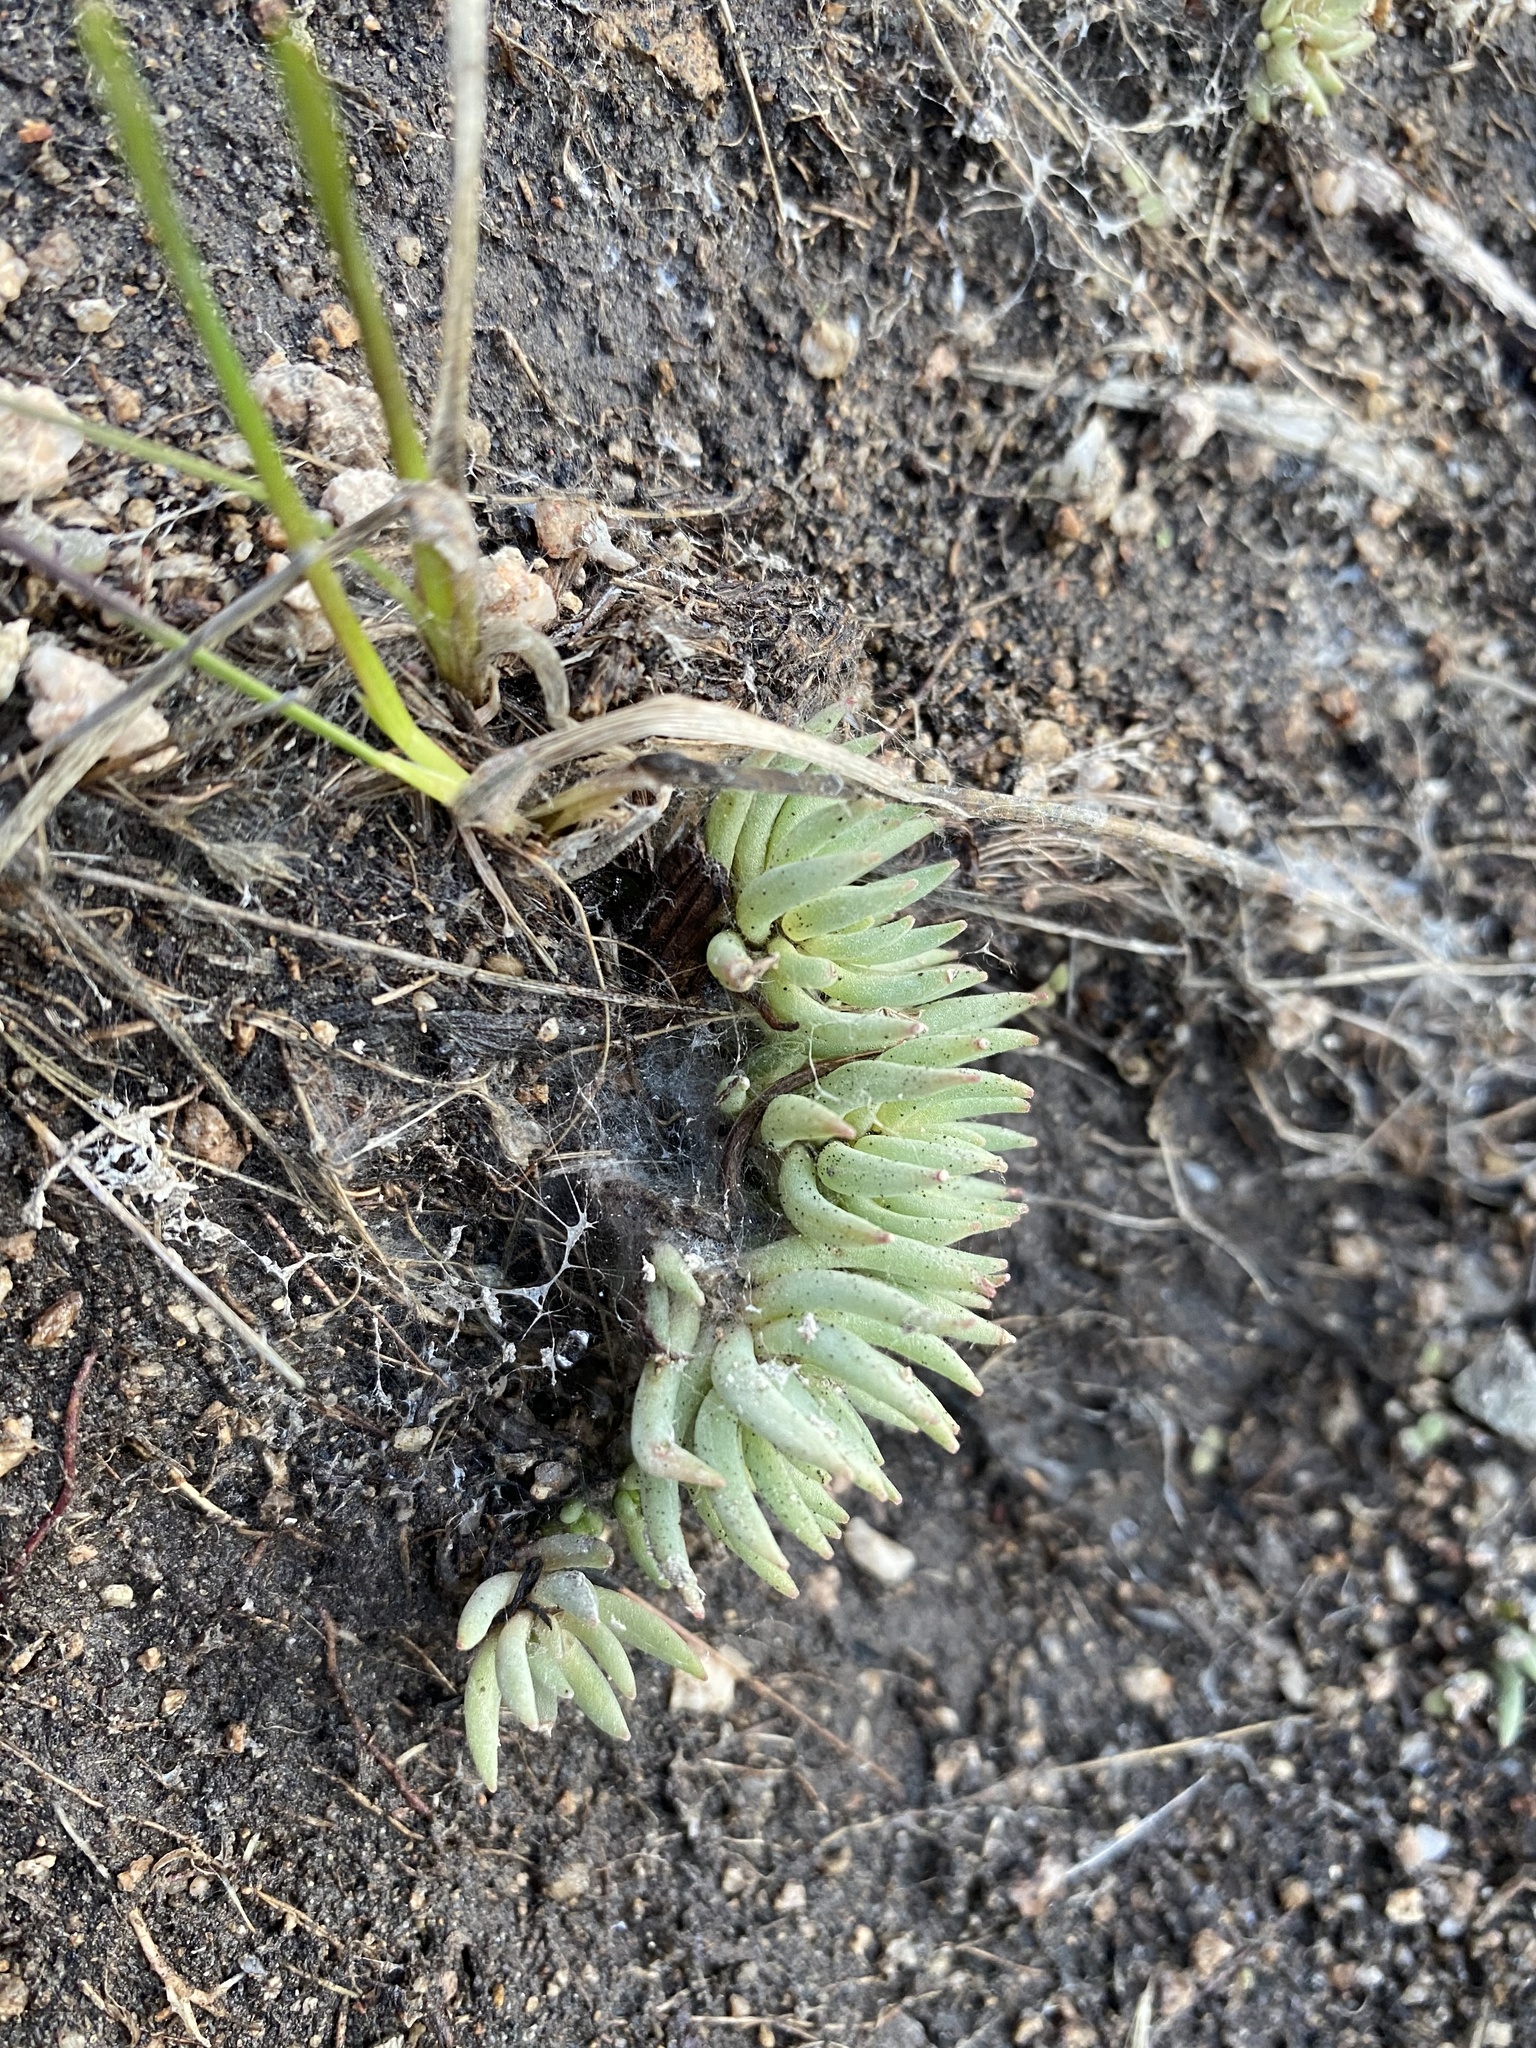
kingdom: Plantae
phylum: Tracheophyta
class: Magnoliopsida
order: Saxifragales
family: Crassulaceae
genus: Sedum
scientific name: Sedum lanceolatum
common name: Common stonecrop
